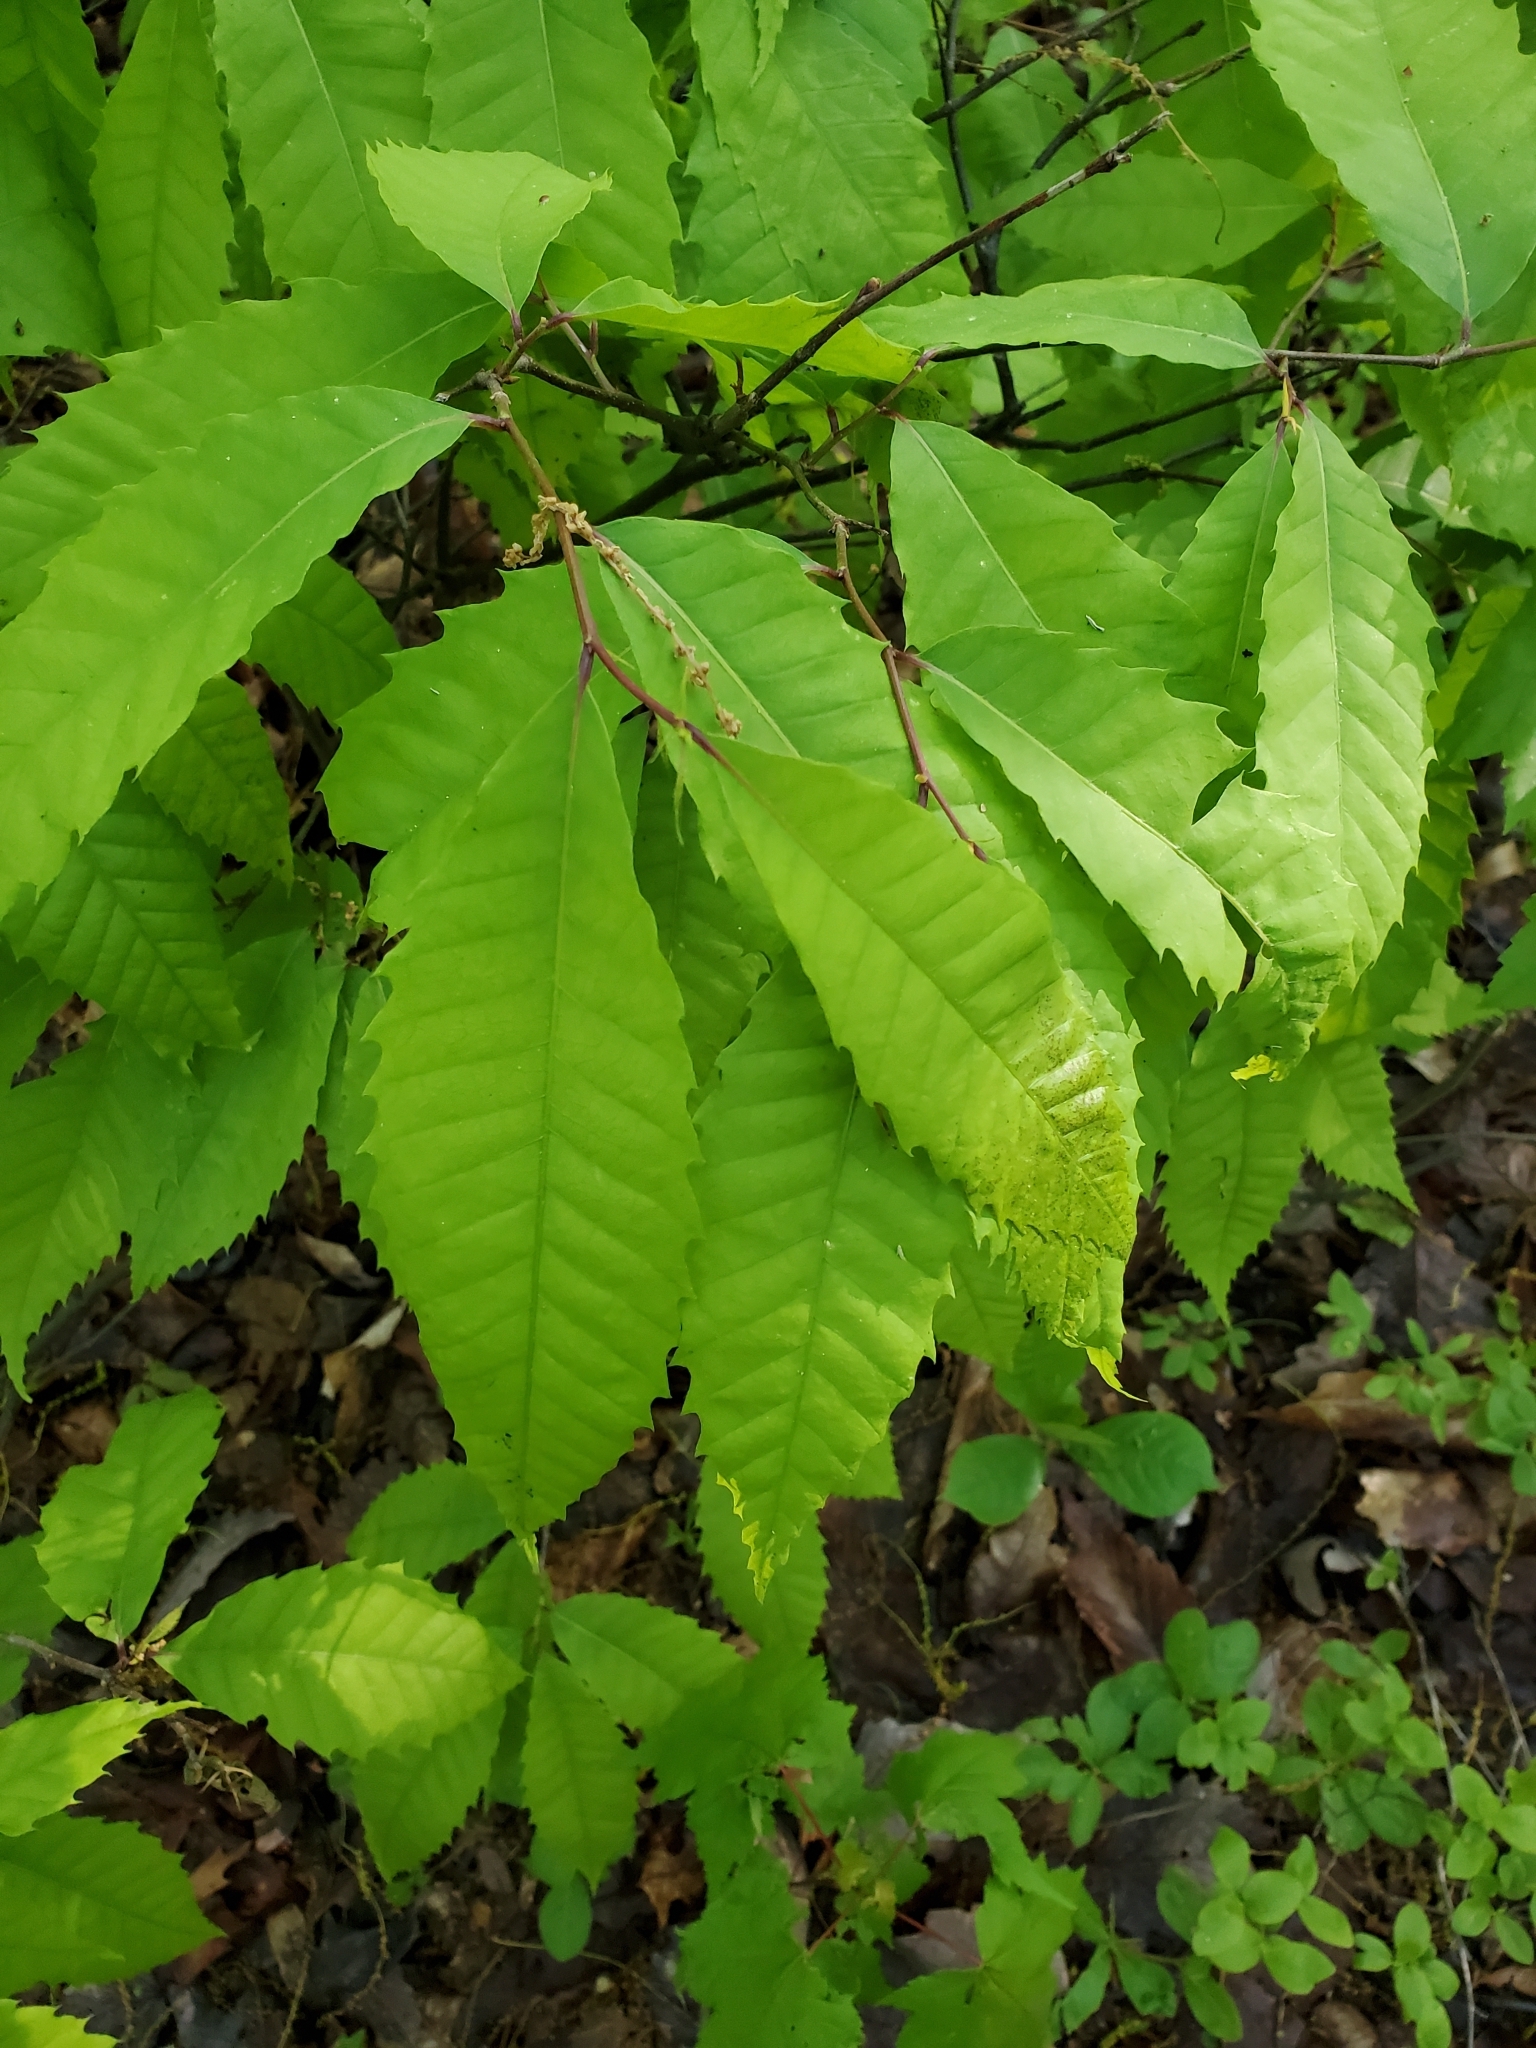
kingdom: Plantae
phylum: Tracheophyta
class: Magnoliopsida
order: Fagales
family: Fagaceae
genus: Castanea
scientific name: Castanea dentata
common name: American chestnut
